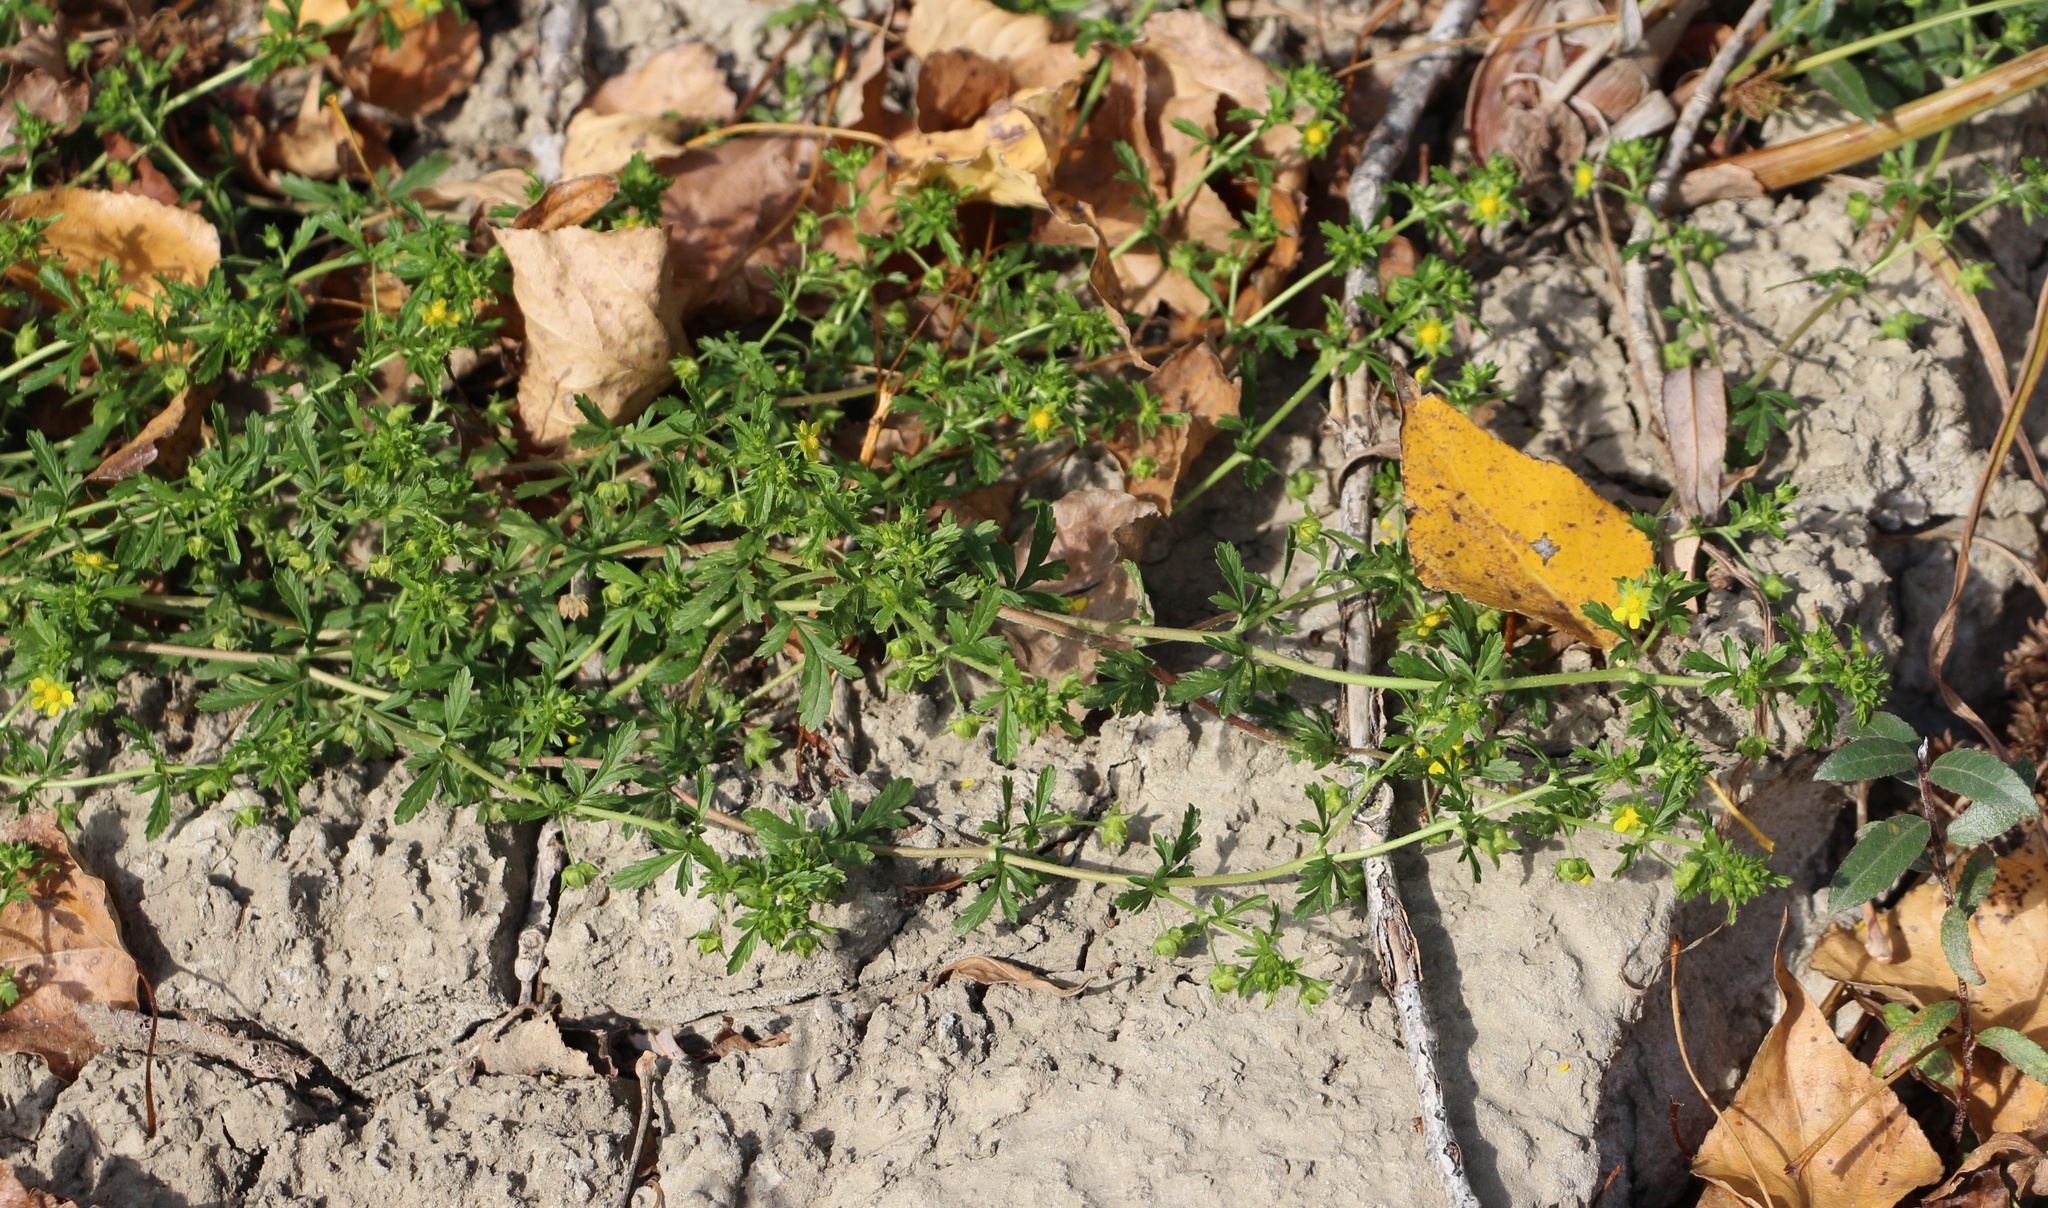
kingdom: Plantae
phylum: Tracheophyta
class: Magnoliopsida
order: Rosales
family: Rosaceae
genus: Potentilla
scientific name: Potentilla supina
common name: Prostrate cinquefoil
